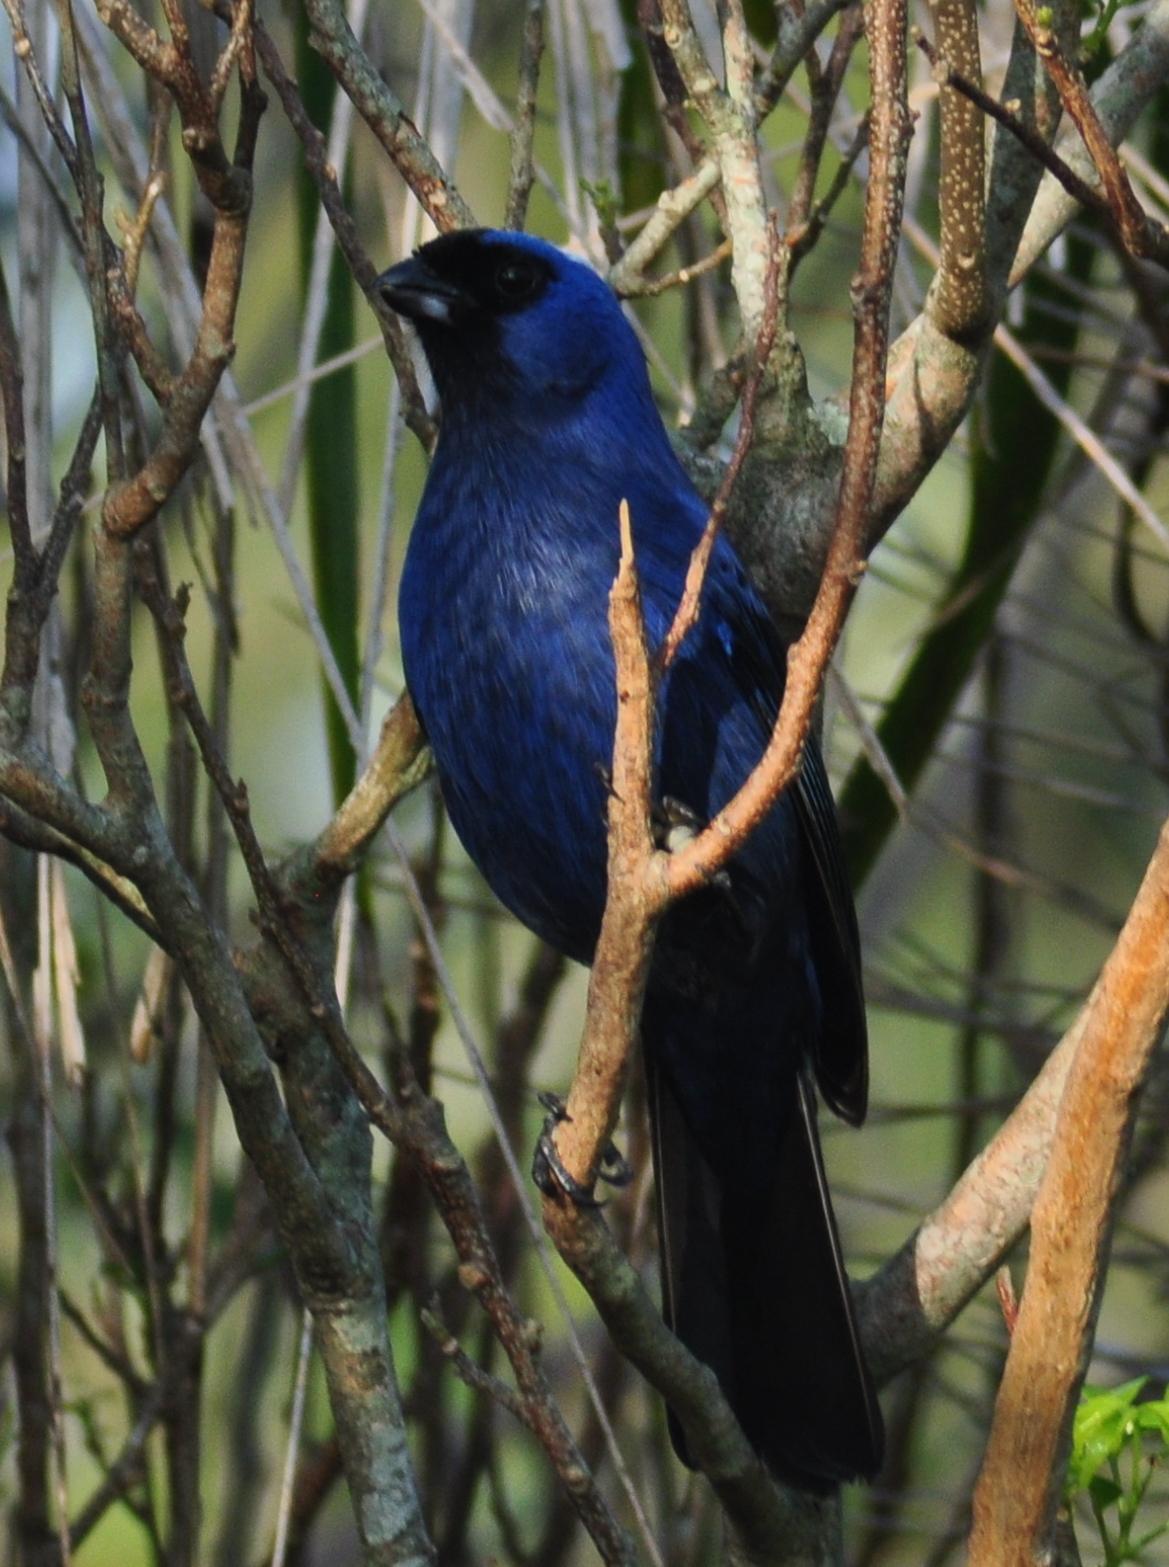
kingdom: Animalia
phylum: Chordata
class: Aves
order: Passeriformes
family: Thraupidae
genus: Stephanophorus
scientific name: Stephanophorus diadematus
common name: Diademed tanager
